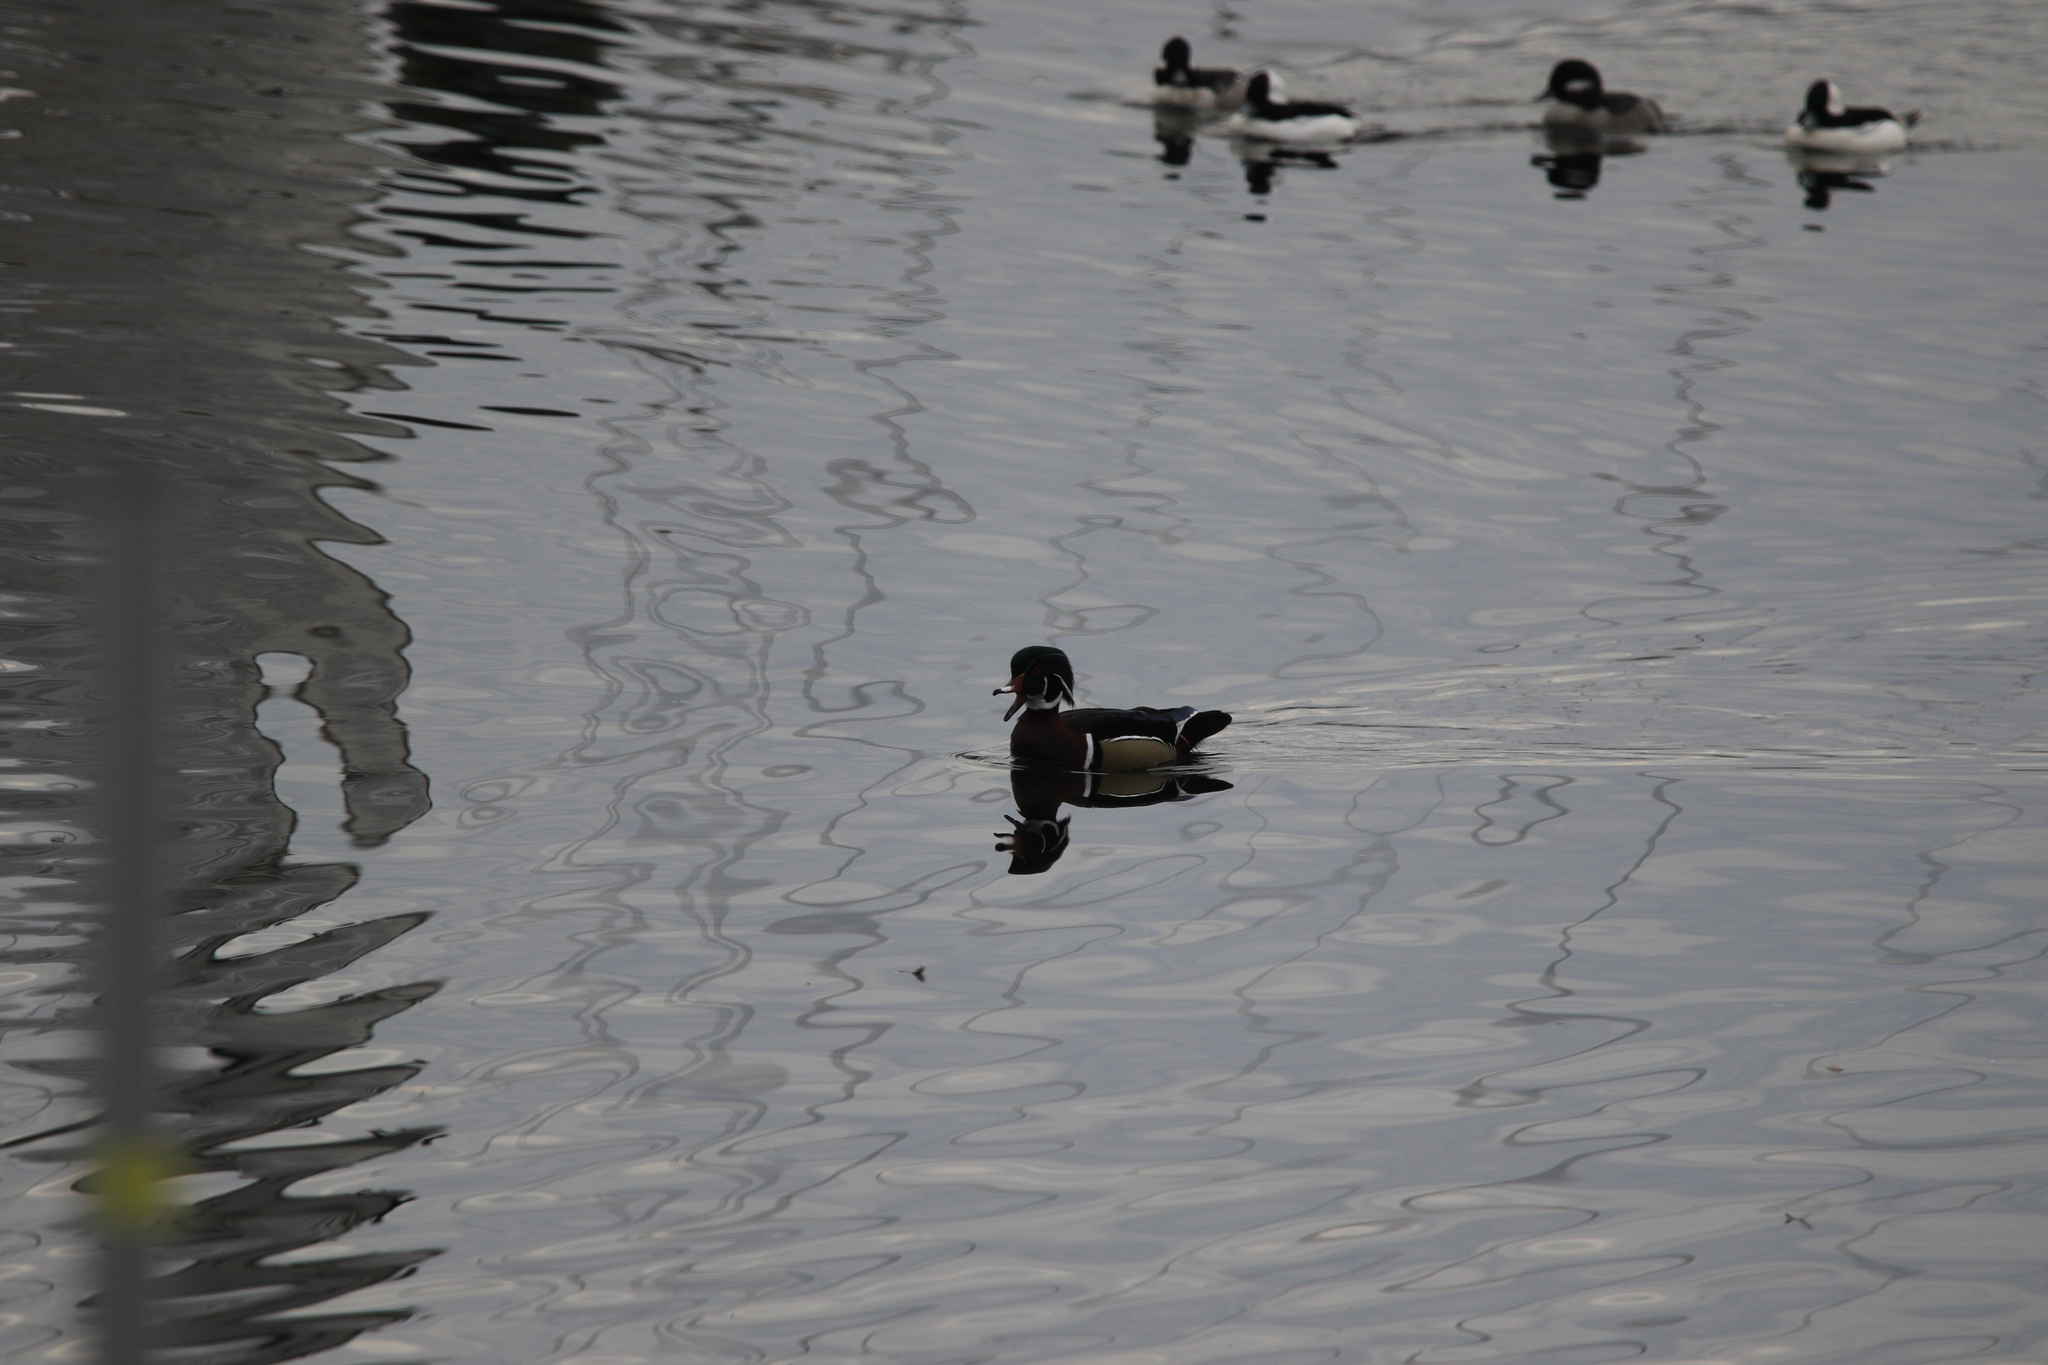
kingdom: Animalia
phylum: Chordata
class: Aves
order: Anseriformes
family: Anatidae
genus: Aix
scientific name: Aix sponsa
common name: Wood duck
